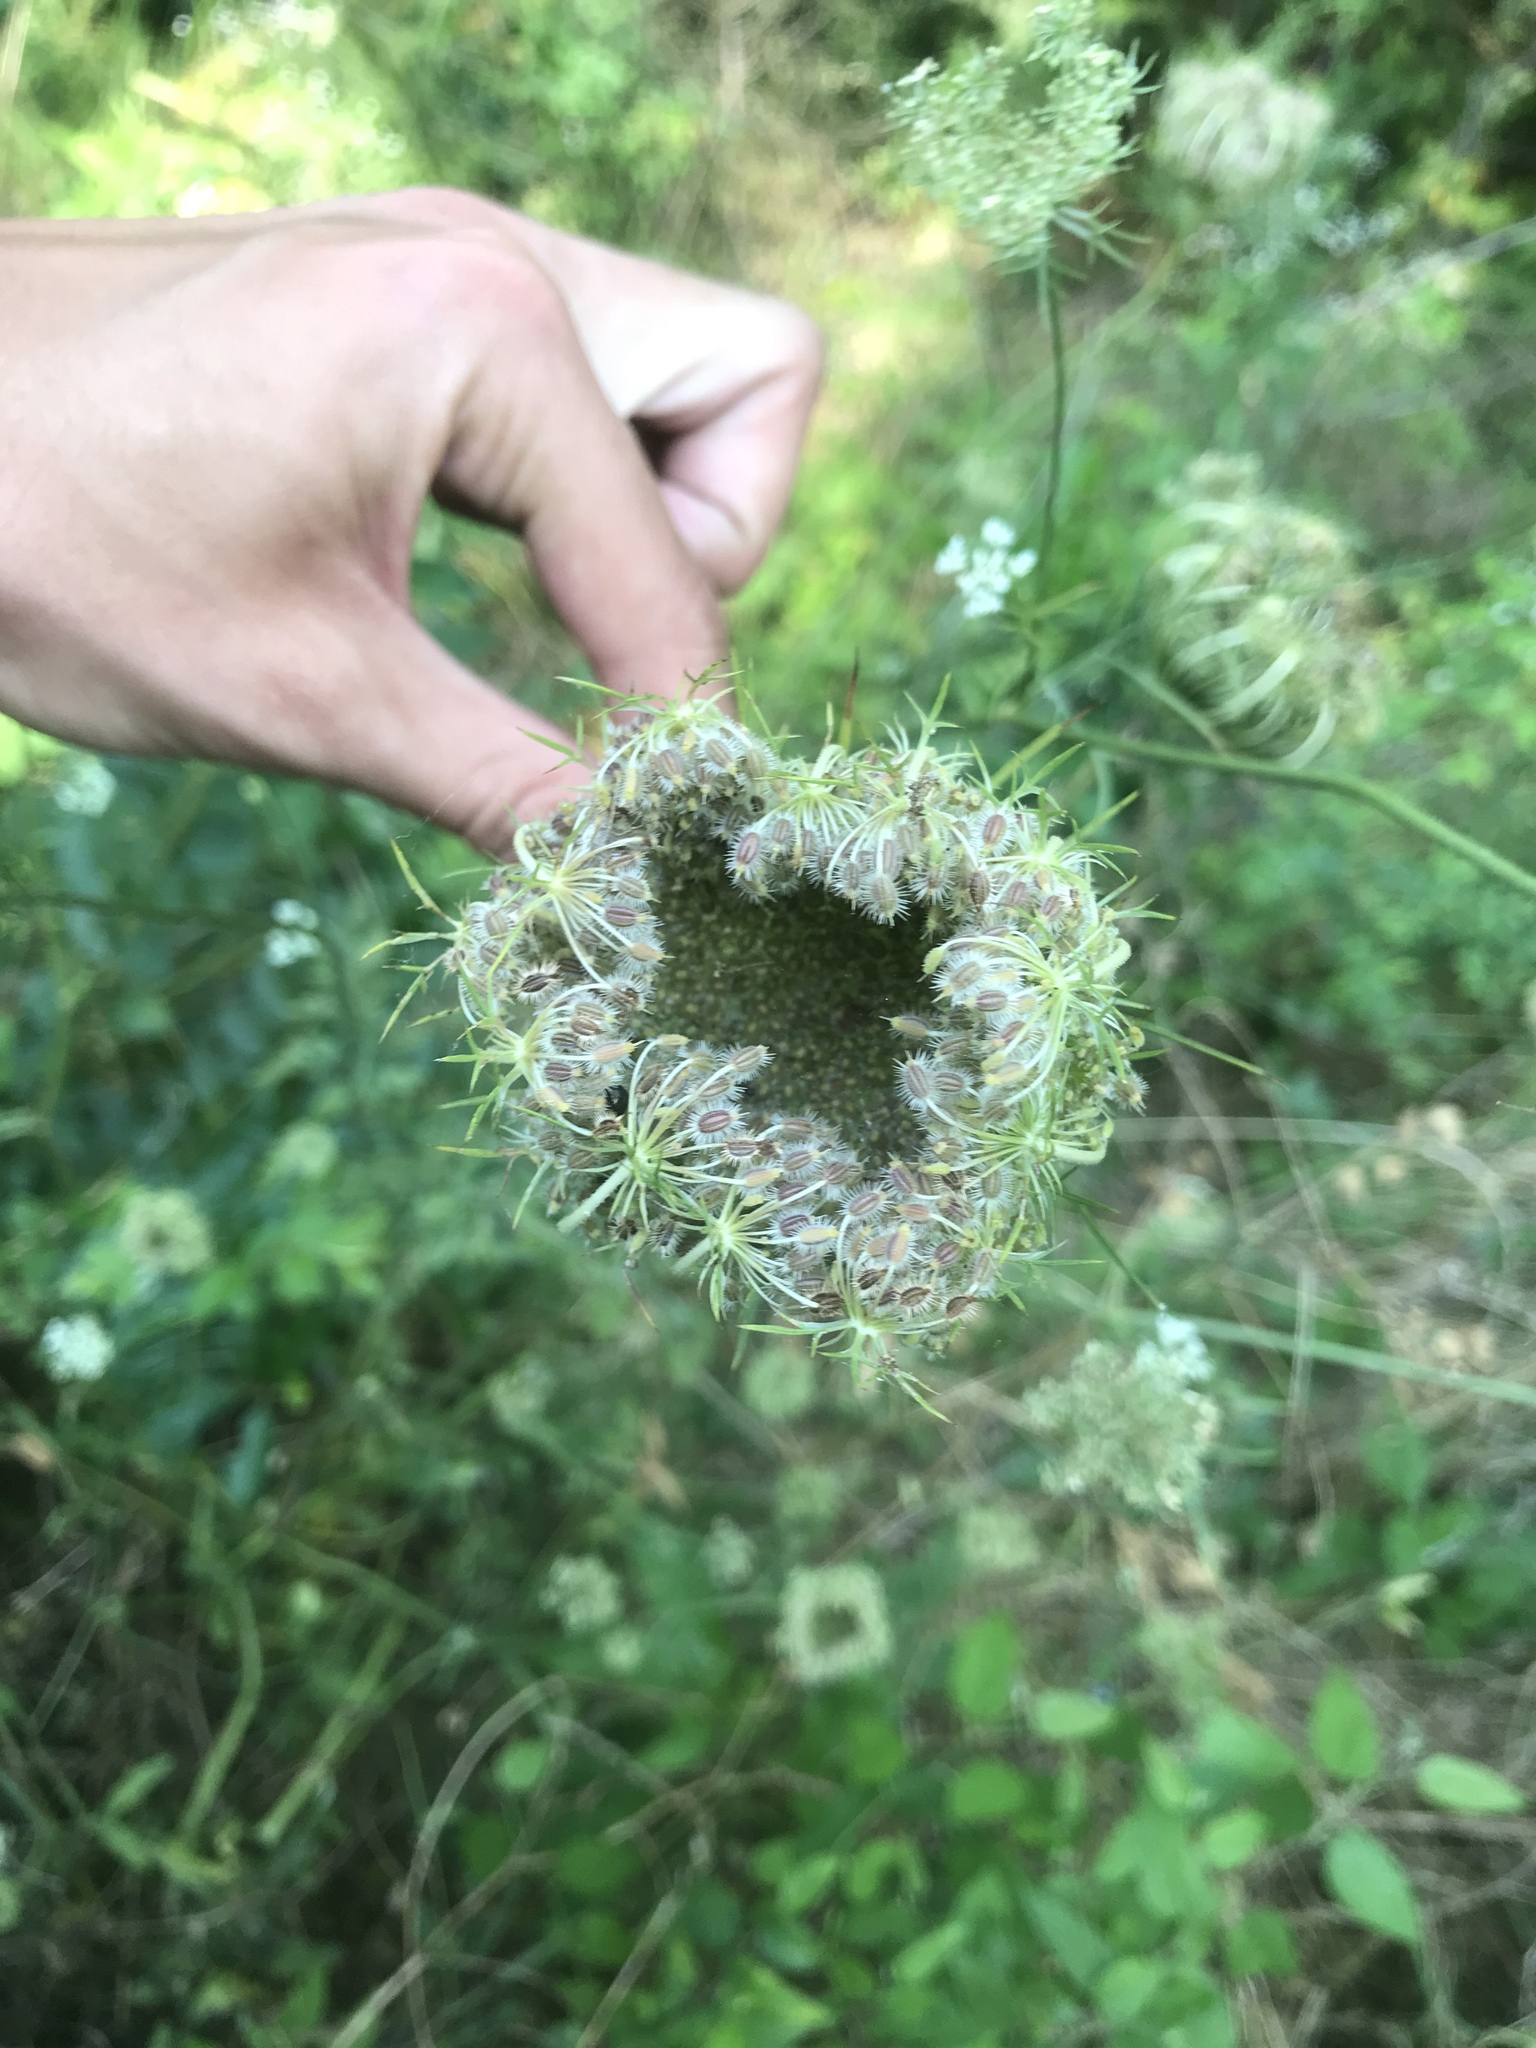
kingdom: Plantae
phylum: Tracheophyta
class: Magnoliopsida
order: Apiales
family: Apiaceae
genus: Daucus
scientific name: Daucus carota
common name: Wild carrot
